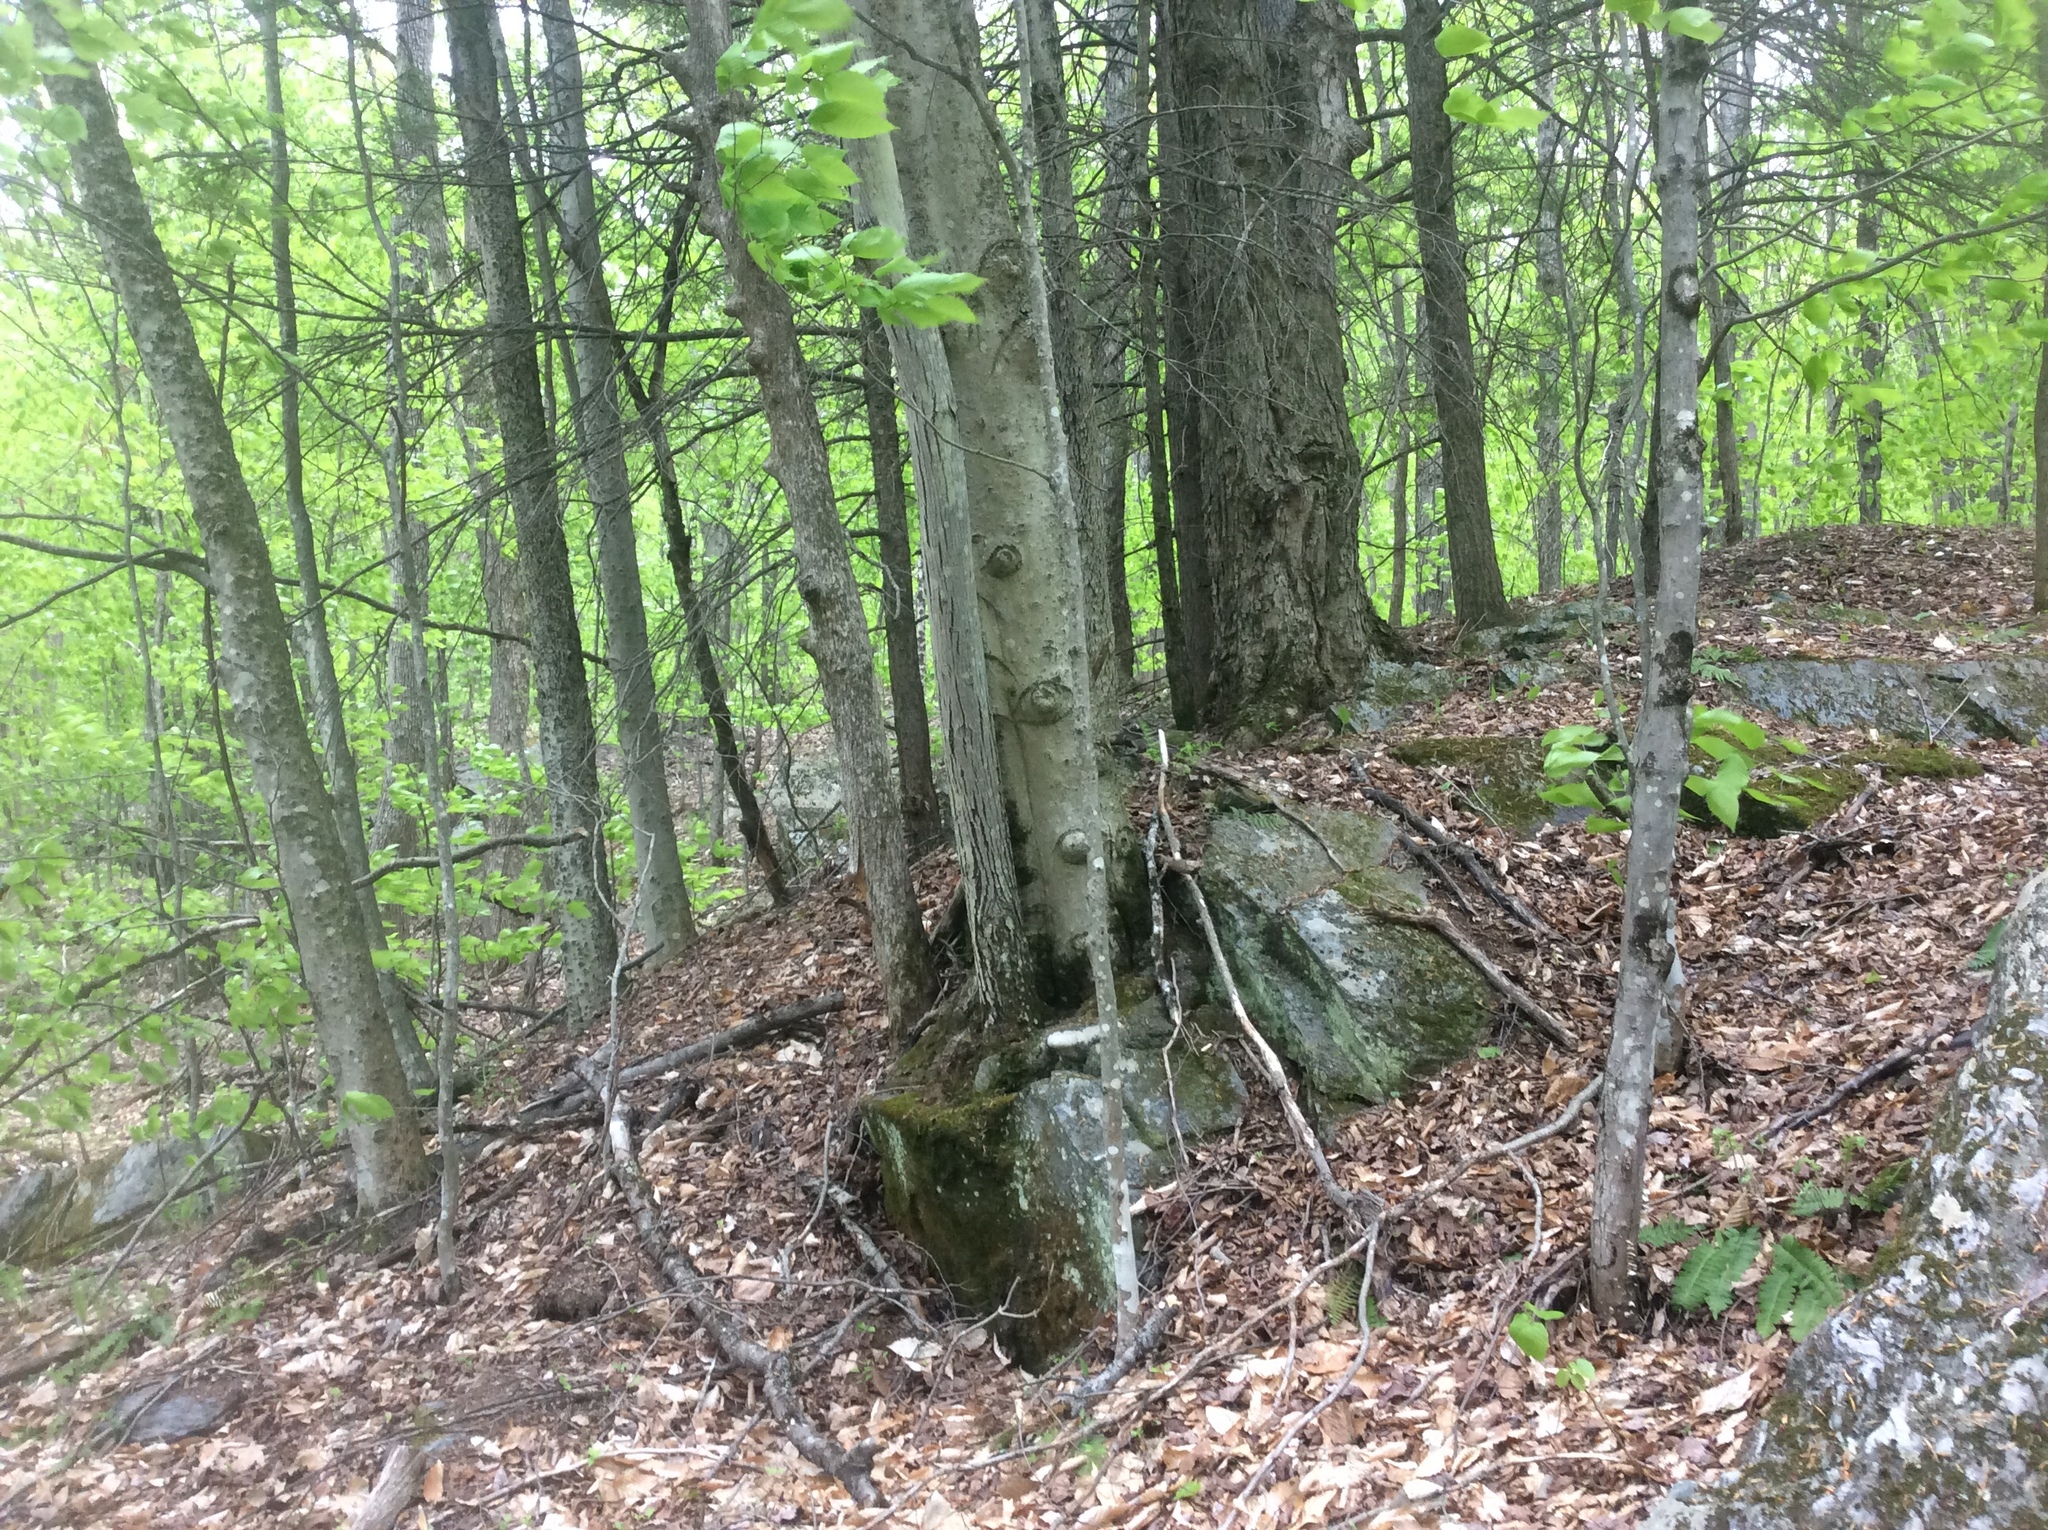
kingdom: Plantae
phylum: Tracheophyta
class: Magnoliopsida
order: Fagales
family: Fagaceae
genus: Fagus
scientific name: Fagus grandifolia
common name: American beech
